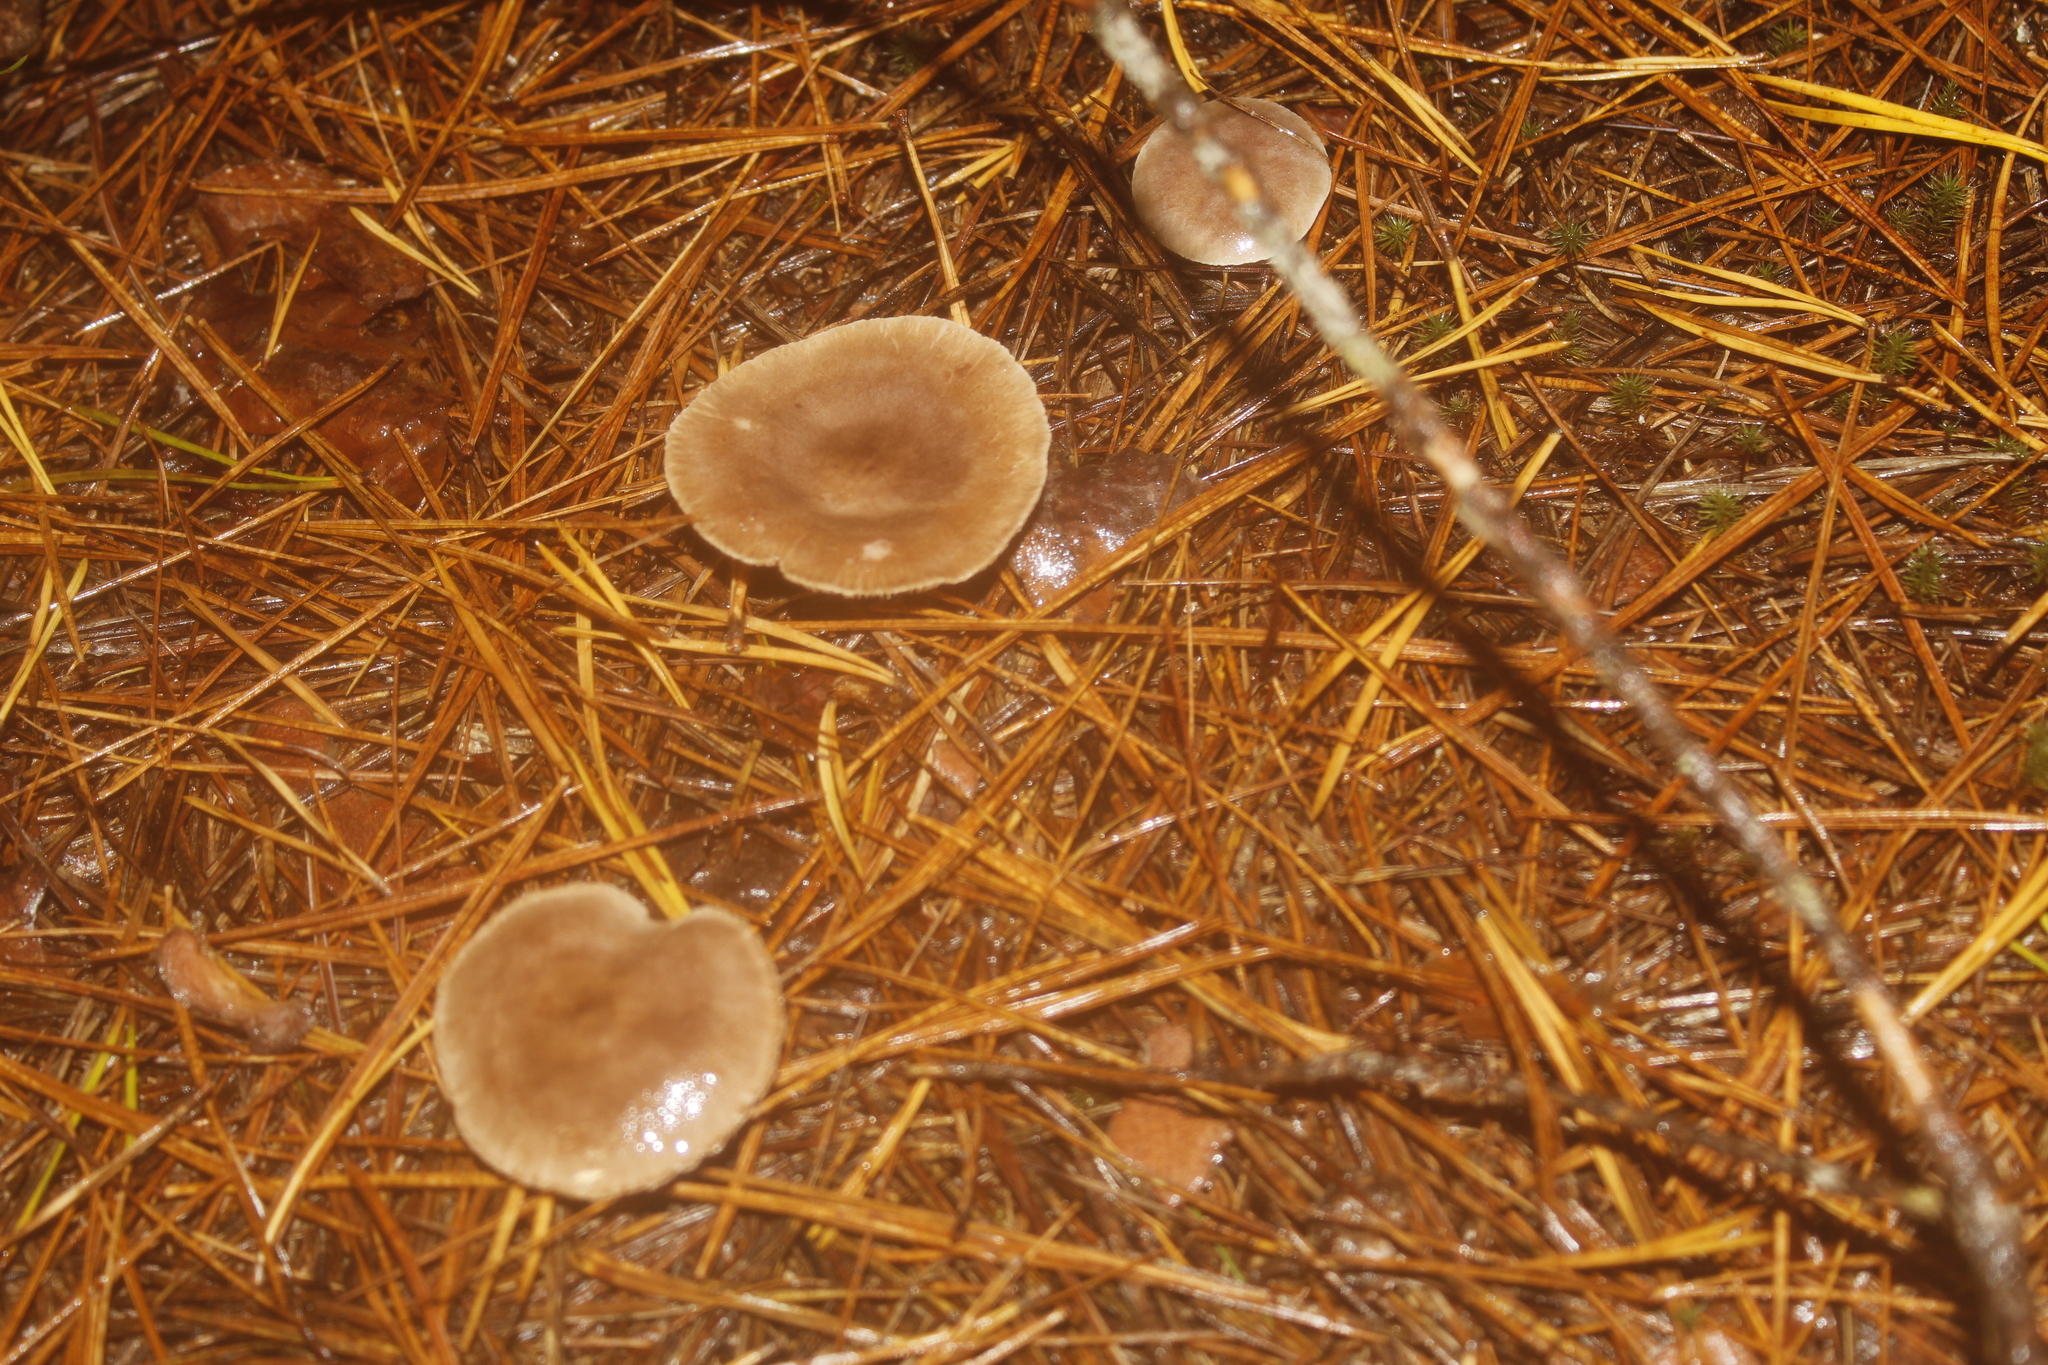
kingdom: Fungi
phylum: Basidiomycota
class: Agaricomycetes
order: Russulales
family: Russulaceae
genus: Lactarius
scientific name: Lactarius mammosus
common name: Pap milkcap
